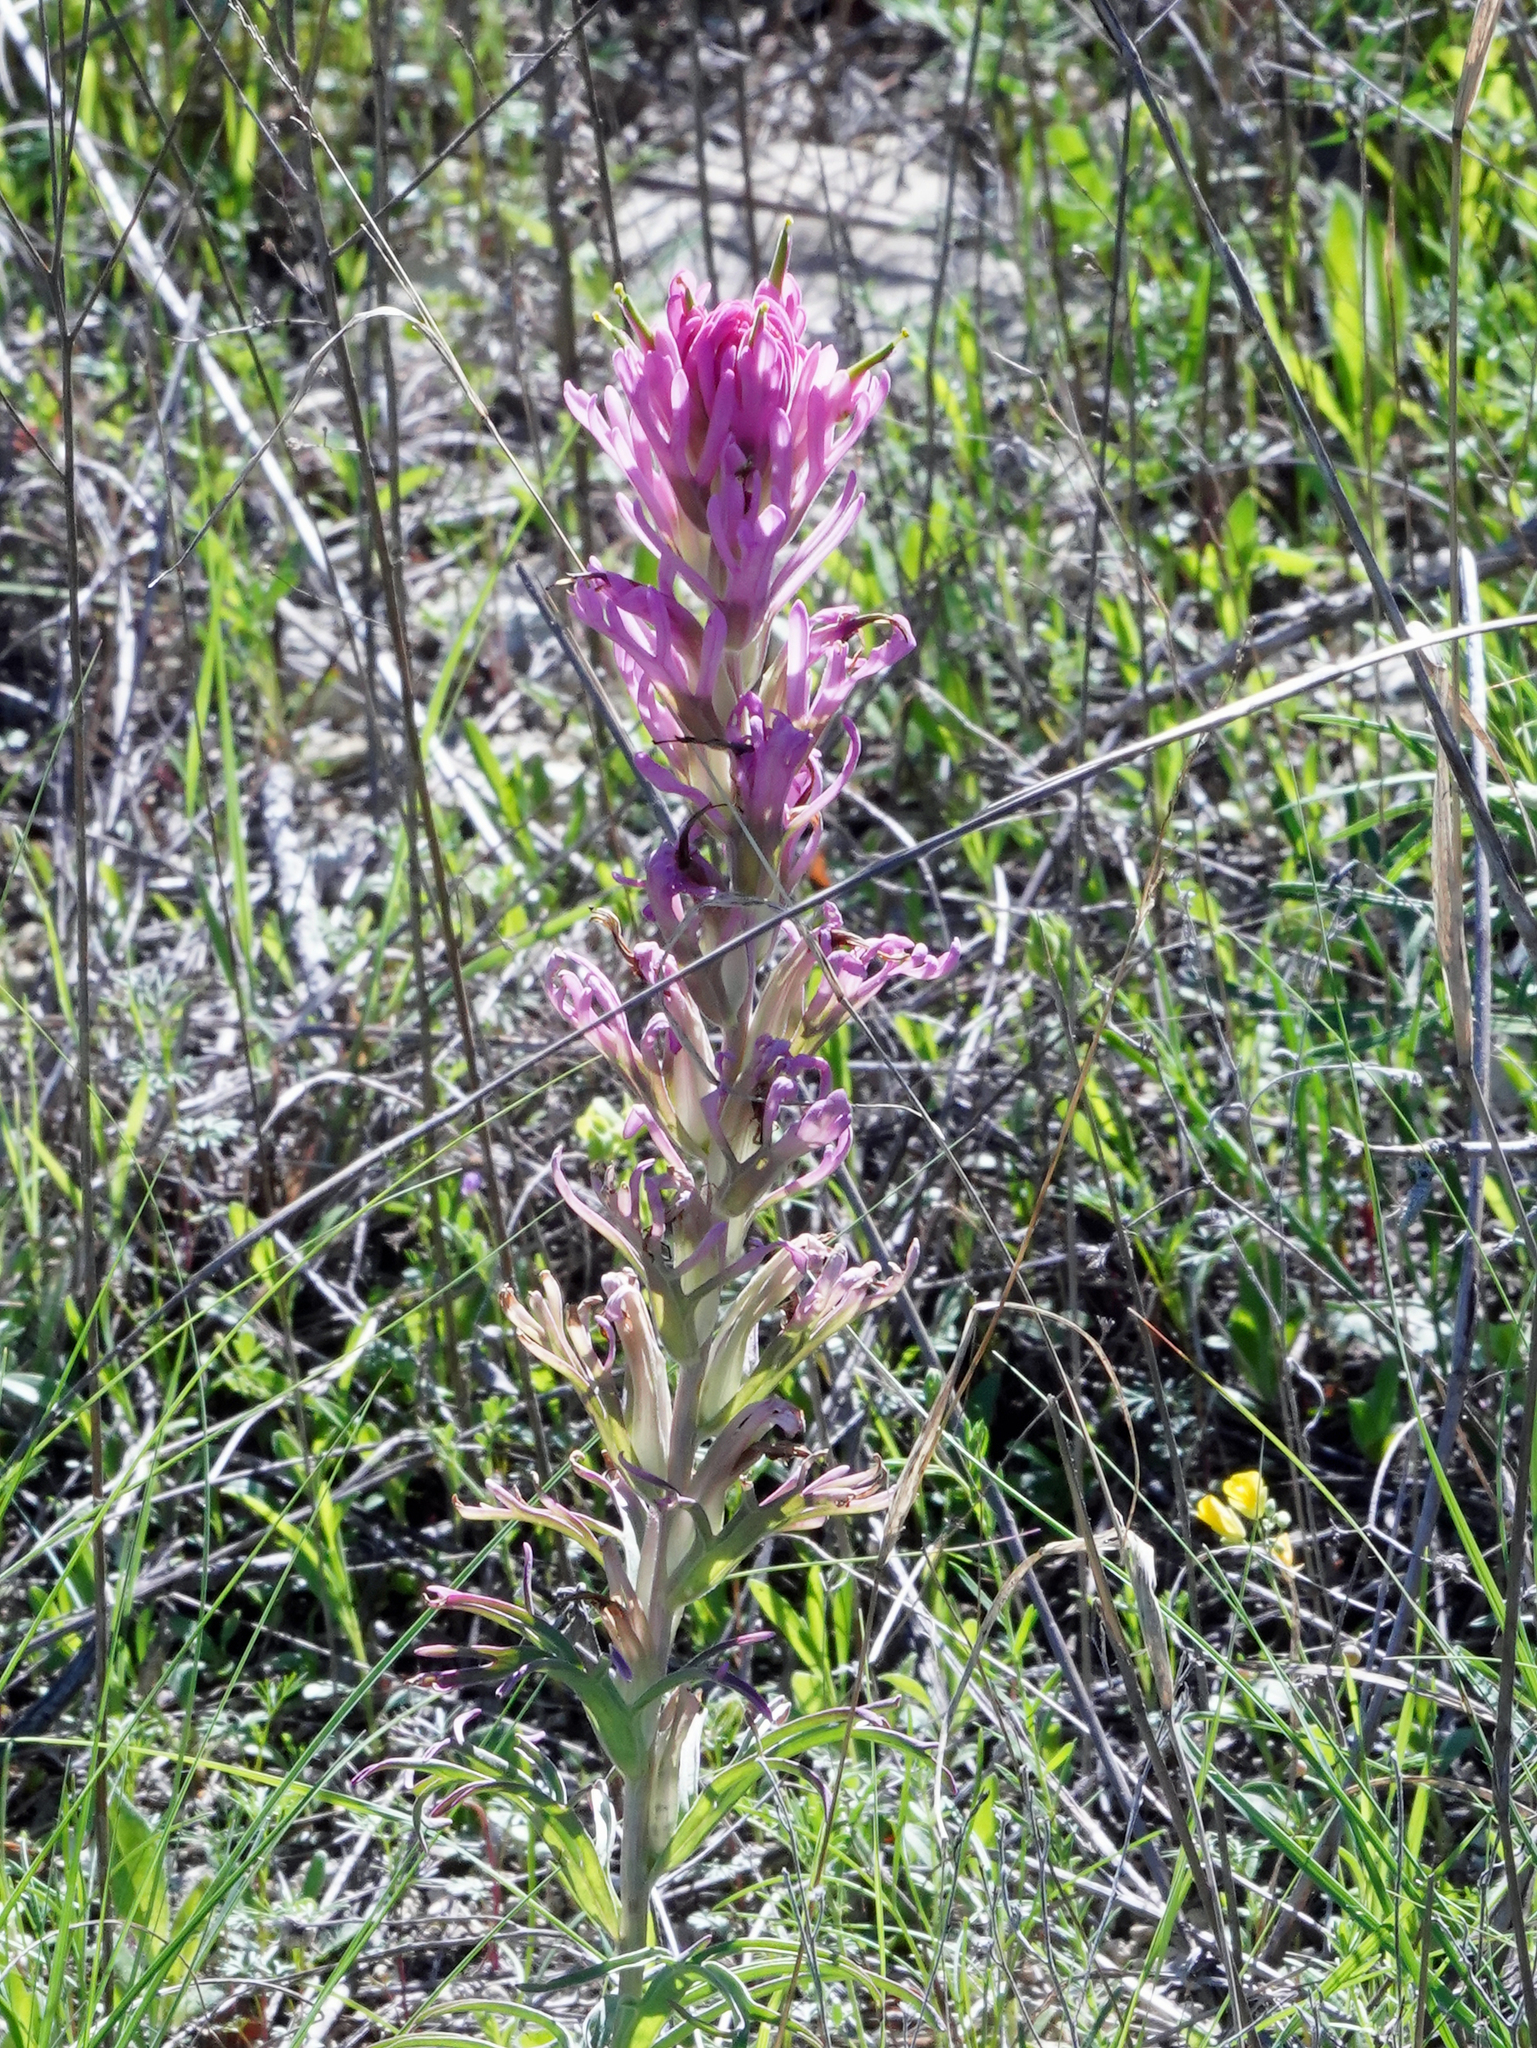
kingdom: Plantae
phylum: Tracheophyta
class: Magnoliopsida
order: Lamiales
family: Orobanchaceae
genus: Castilleja
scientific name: Castilleja purpurea
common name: Plains paintbrush
